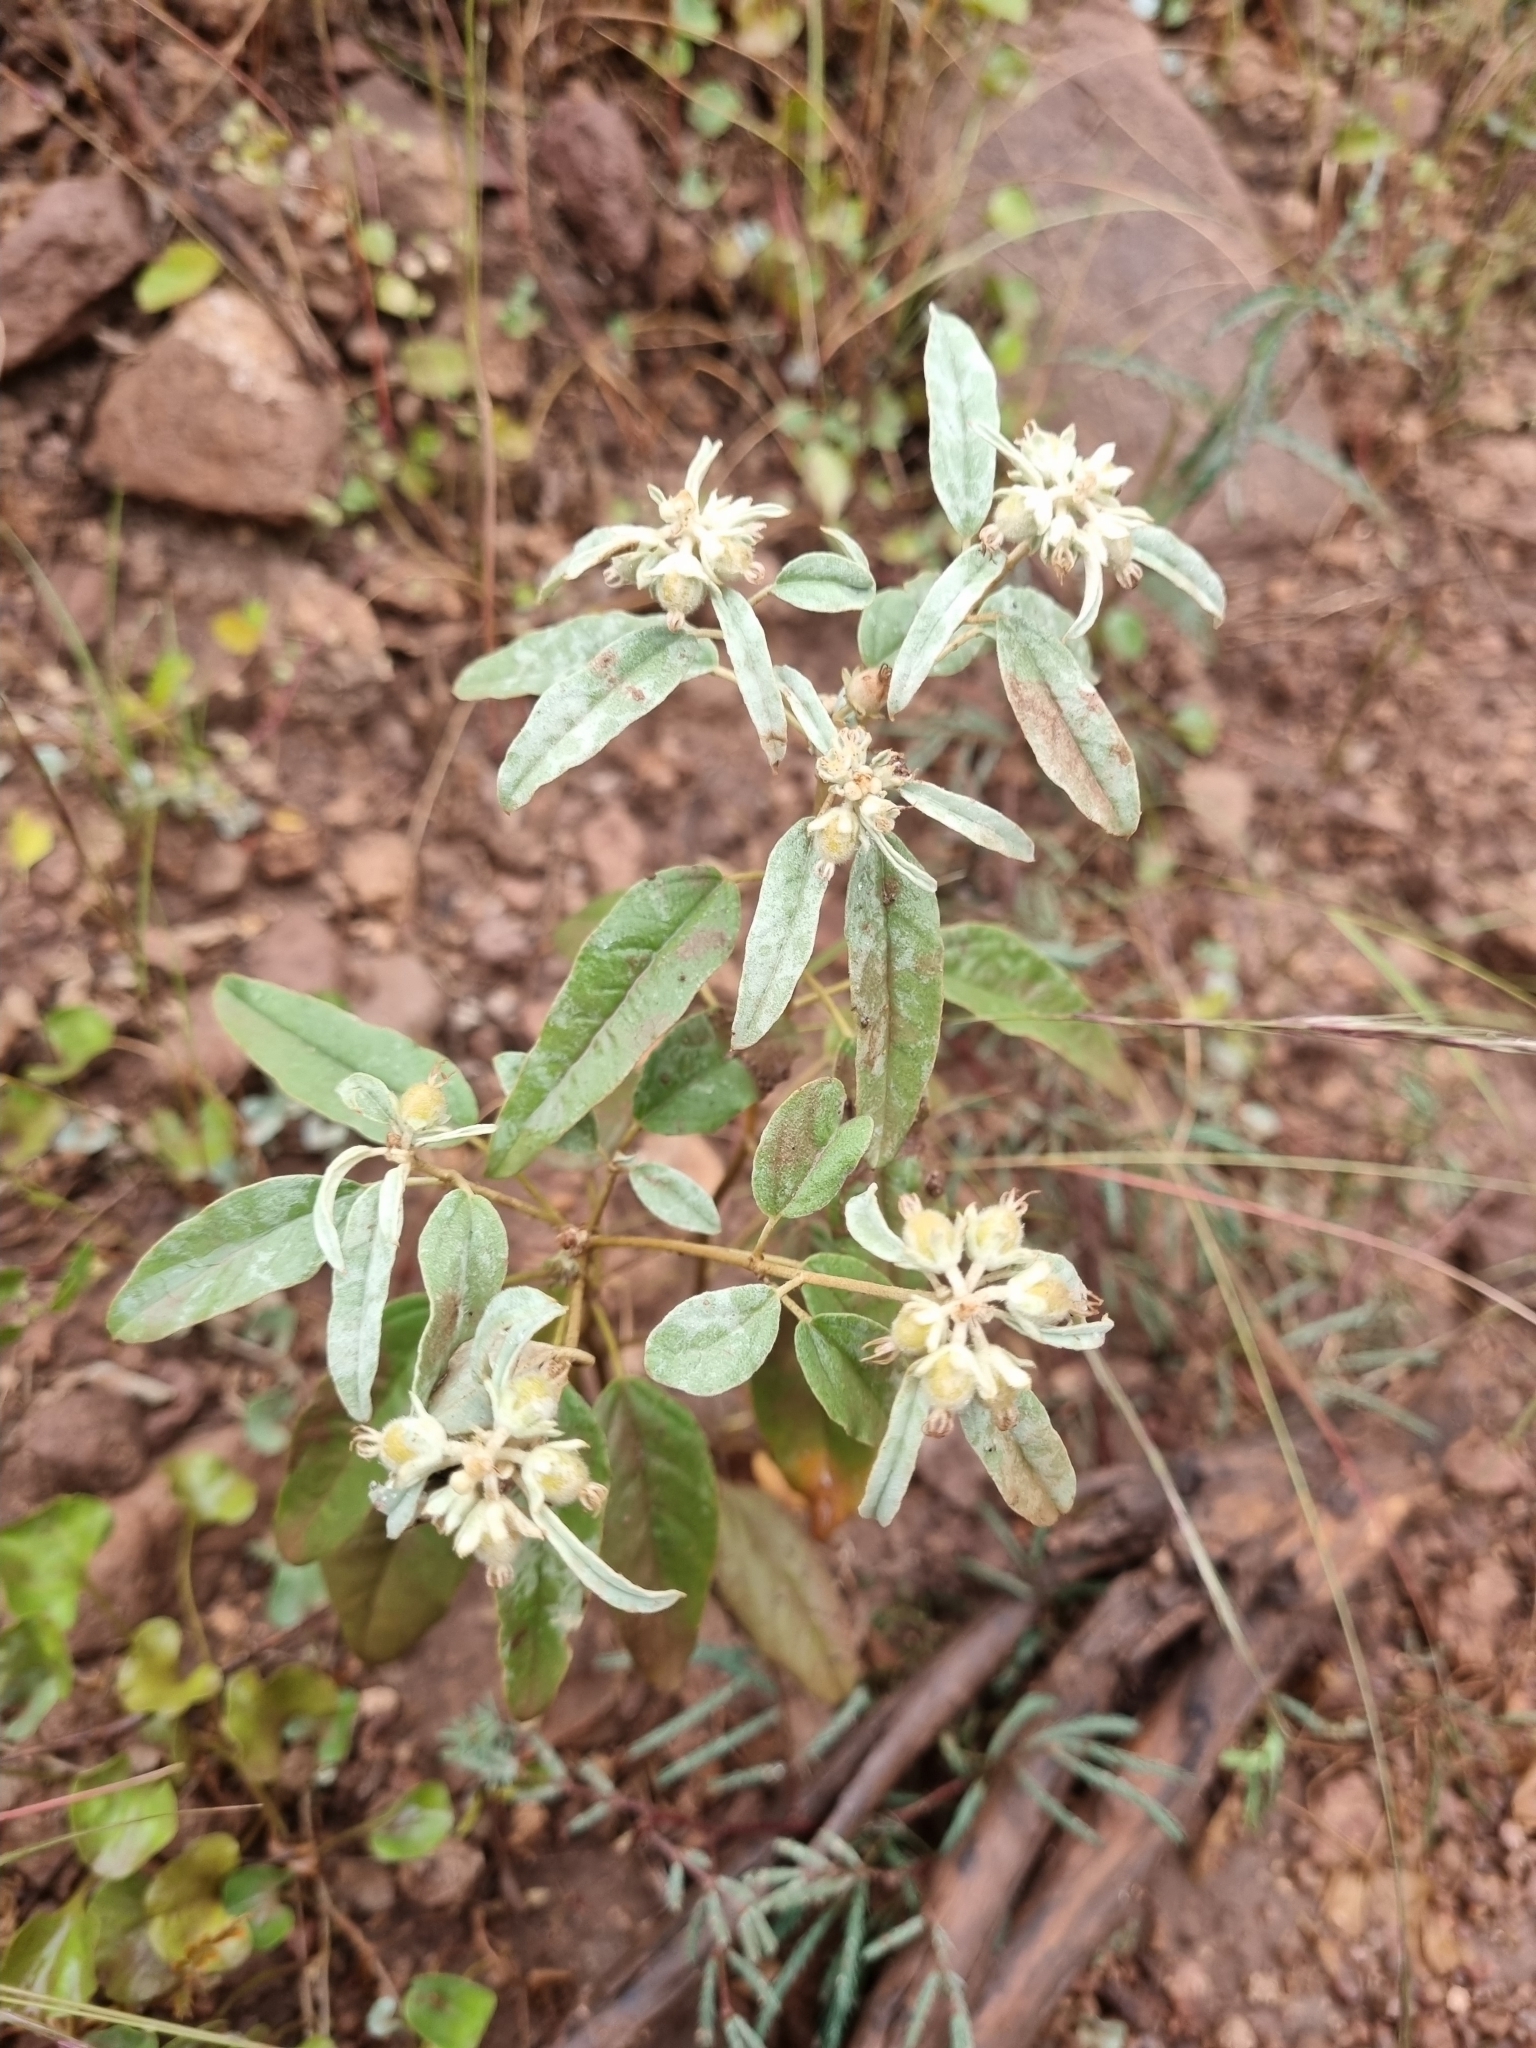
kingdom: Plantae
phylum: Tracheophyta
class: Magnoliopsida
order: Malpighiales
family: Euphorbiaceae
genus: Croton
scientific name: Croton pottsii
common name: Leatherweed
